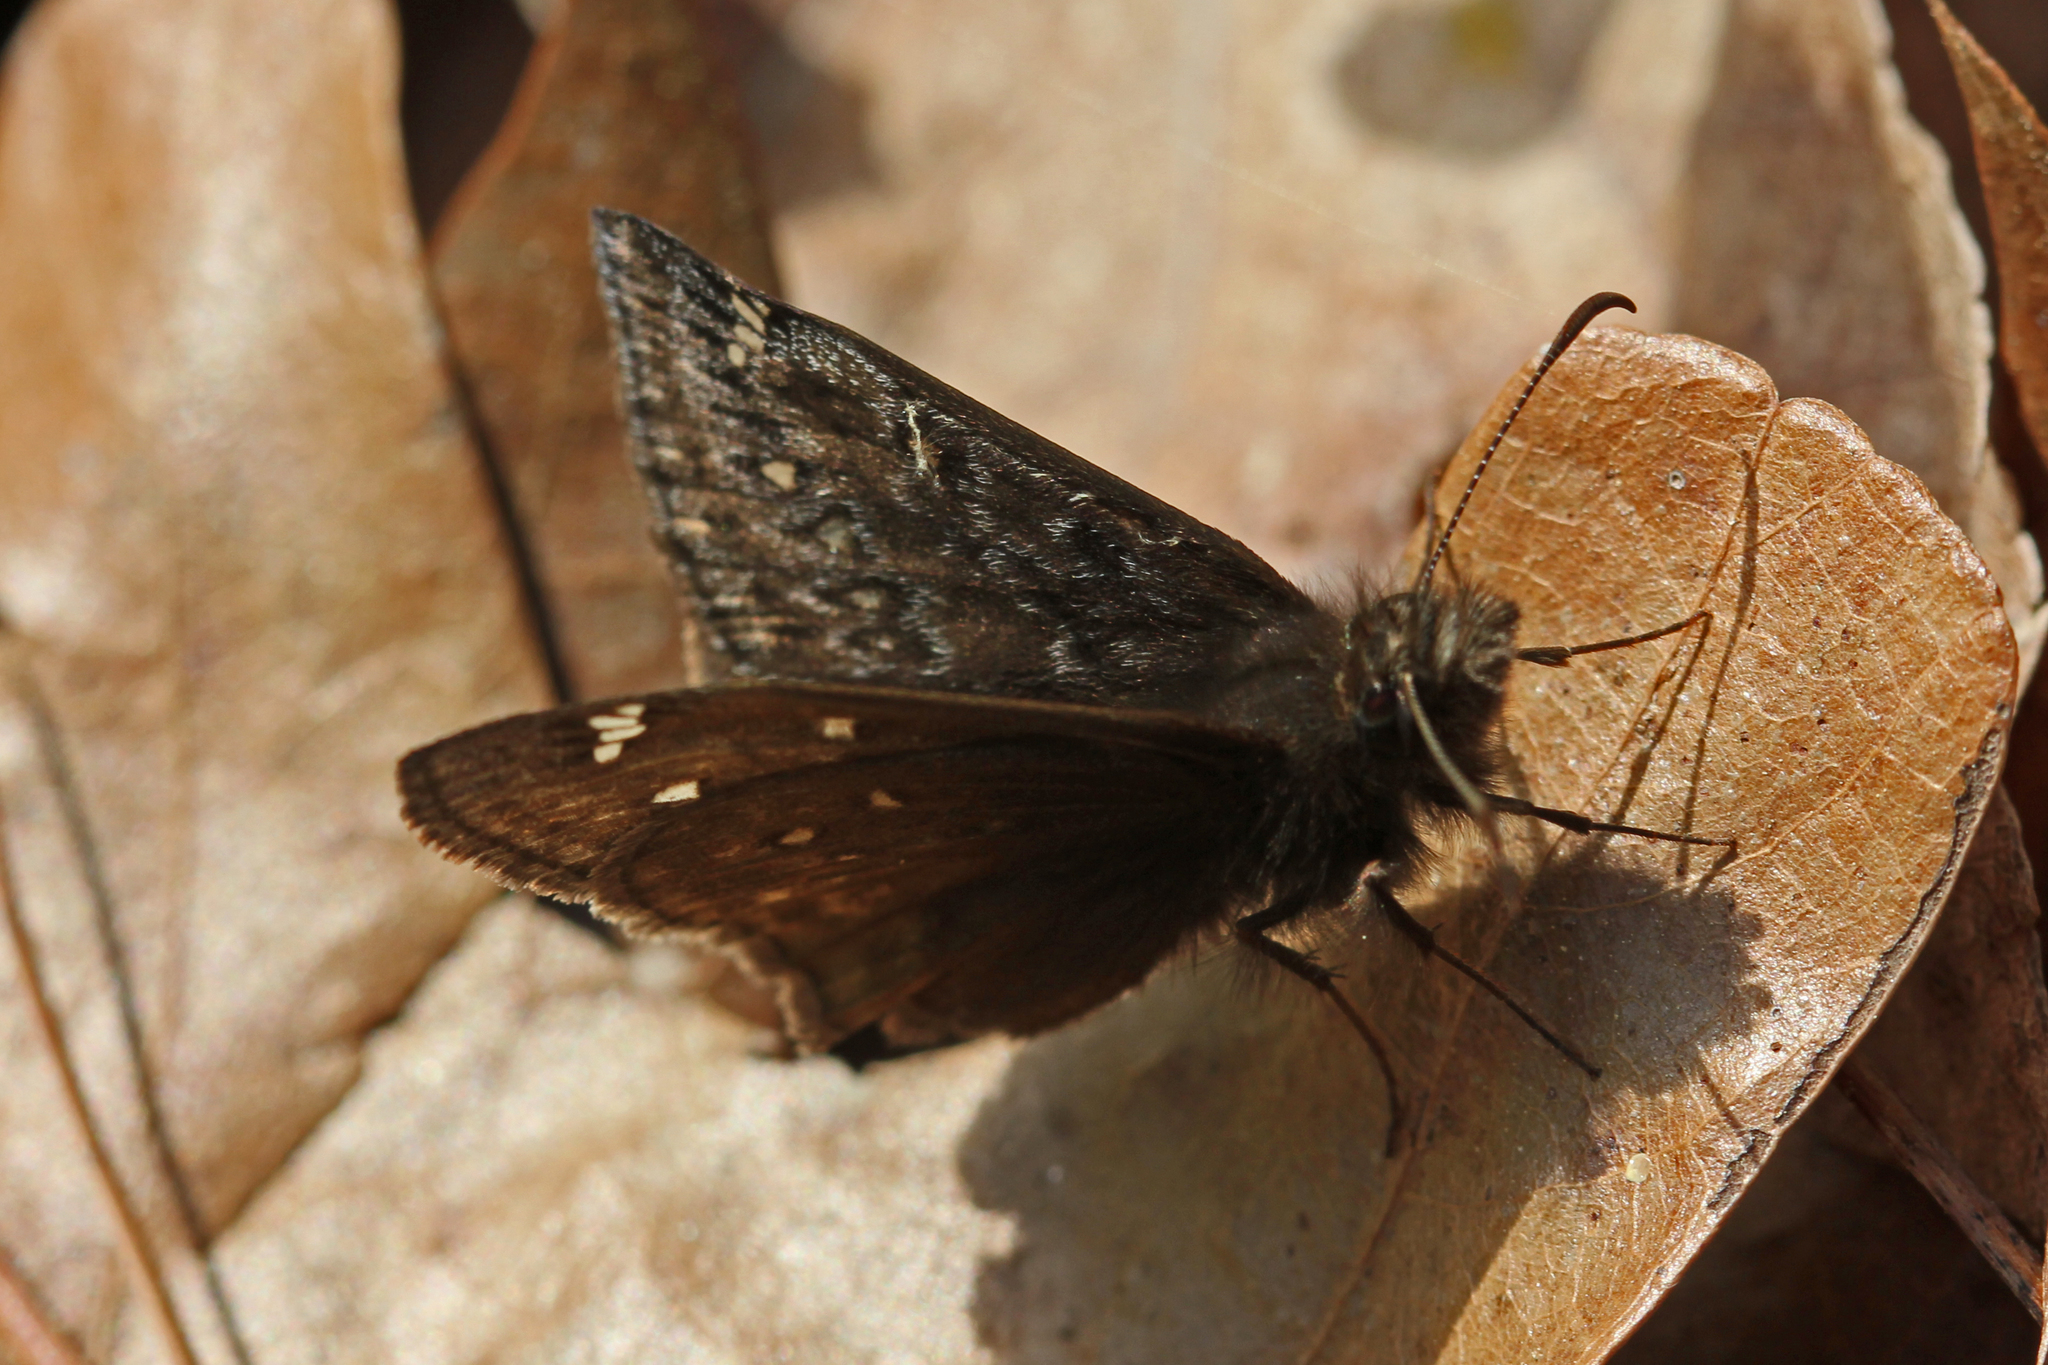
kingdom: Animalia
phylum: Arthropoda
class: Insecta
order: Lepidoptera
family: Hesperiidae
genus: Erynnis
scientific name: Erynnis juvenalis
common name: Juvenal's duskywing
